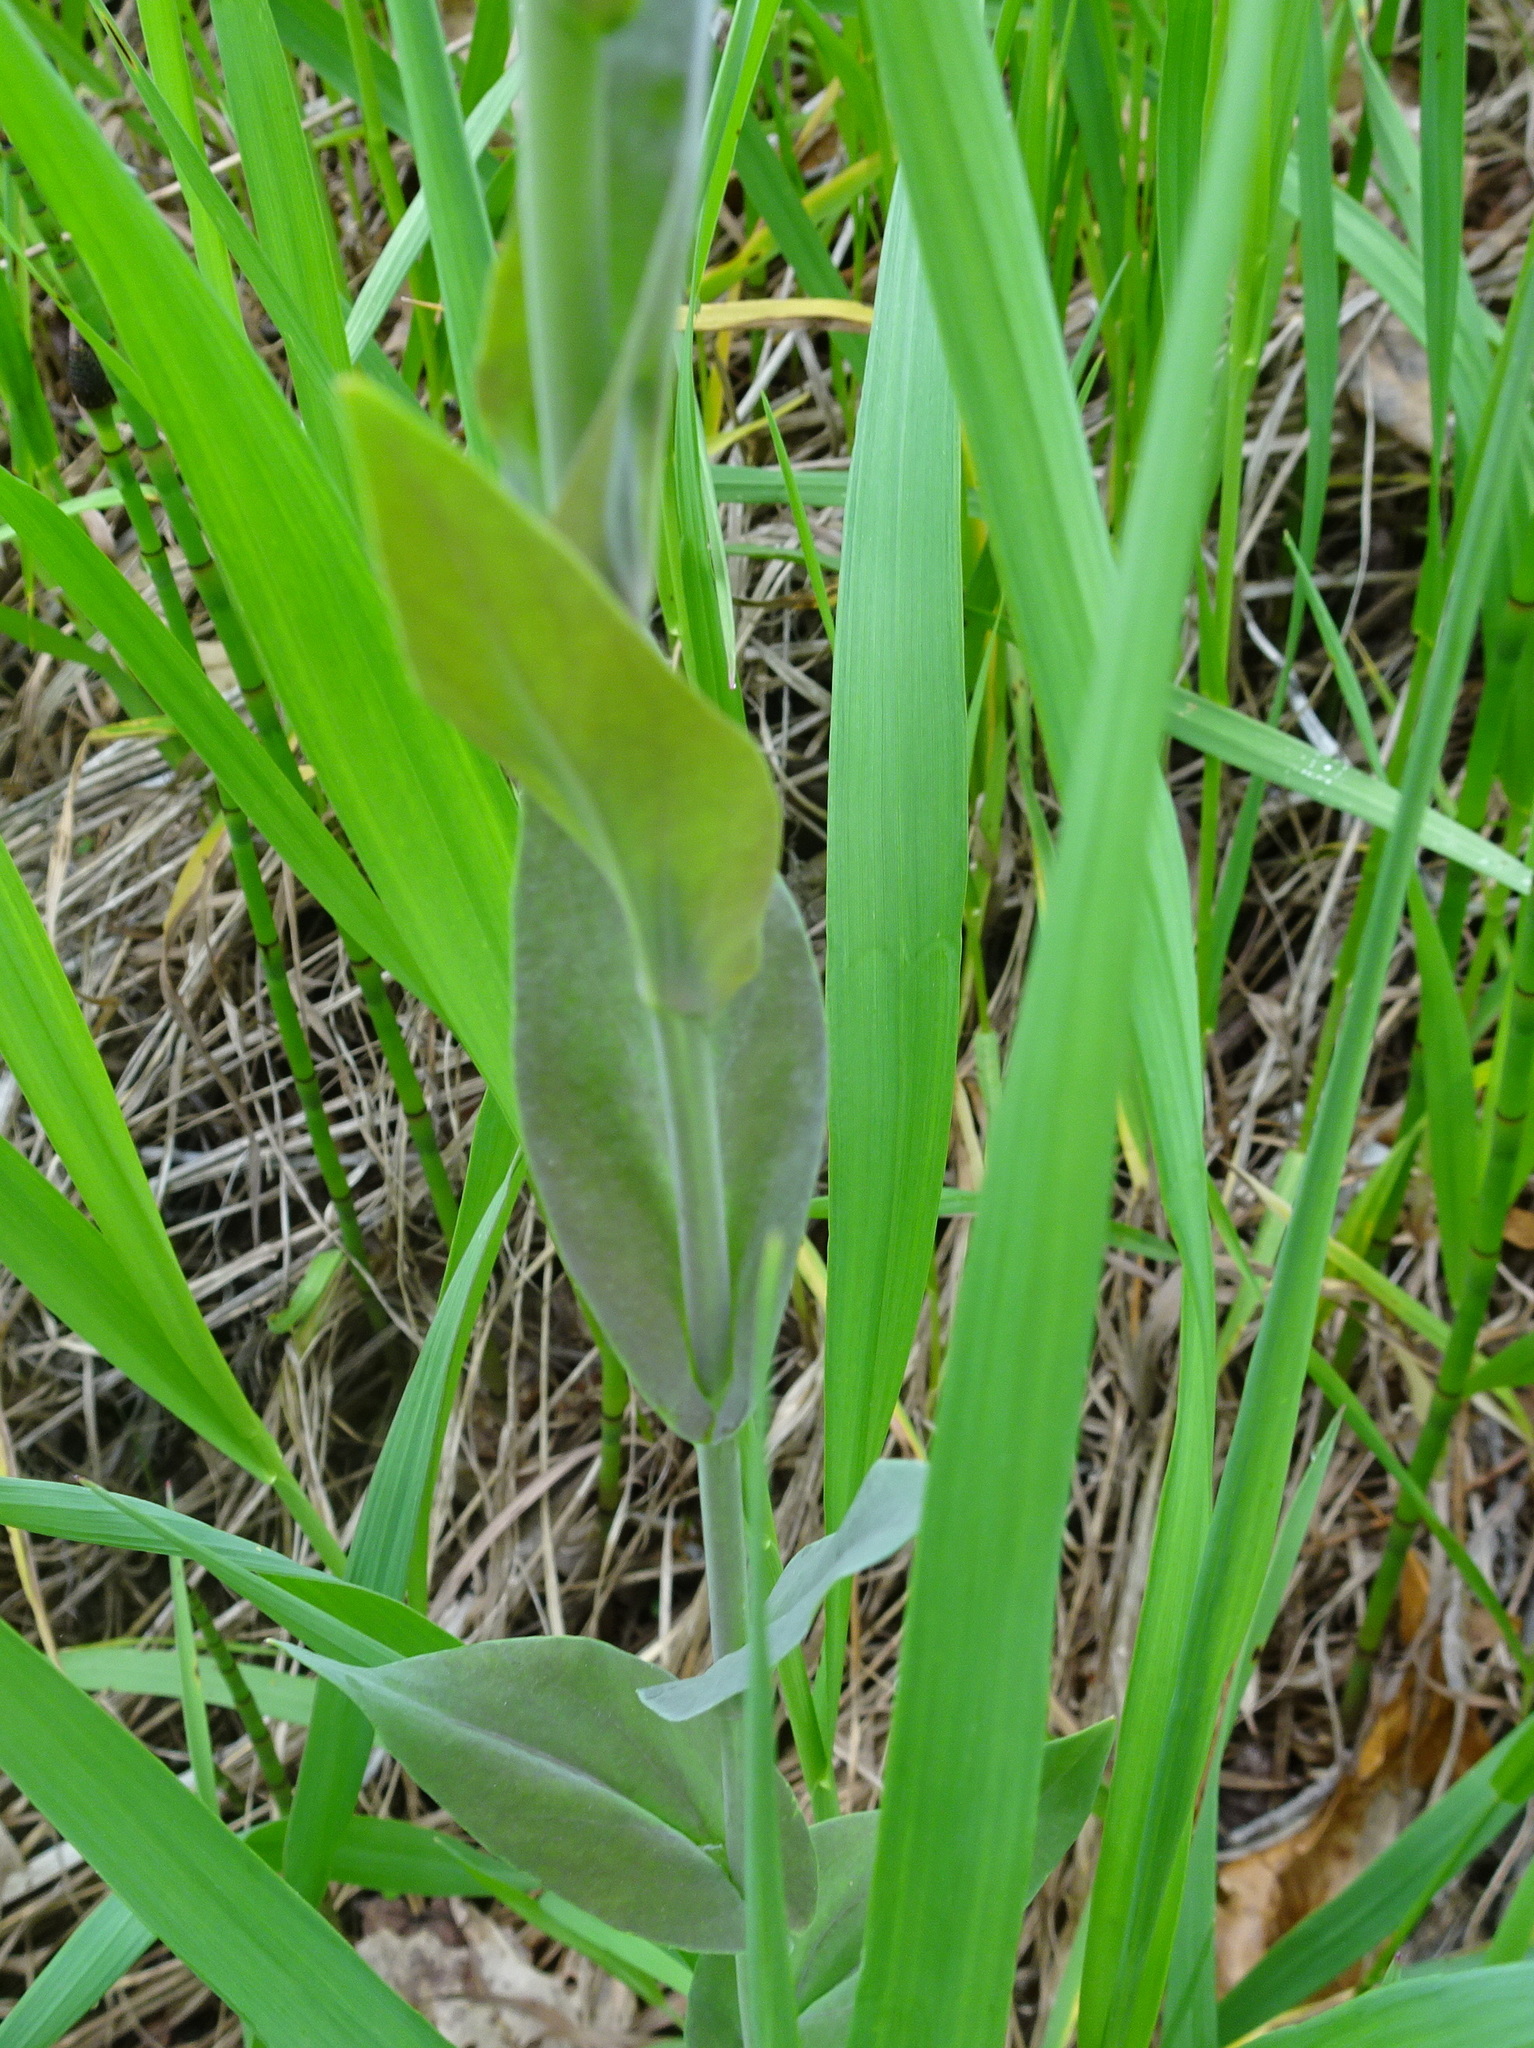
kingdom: Plantae
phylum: Tracheophyta
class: Magnoliopsida
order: Brassicales
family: Brassicaceae
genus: Turritis
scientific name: Turritis glabra
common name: Tower rockcress
